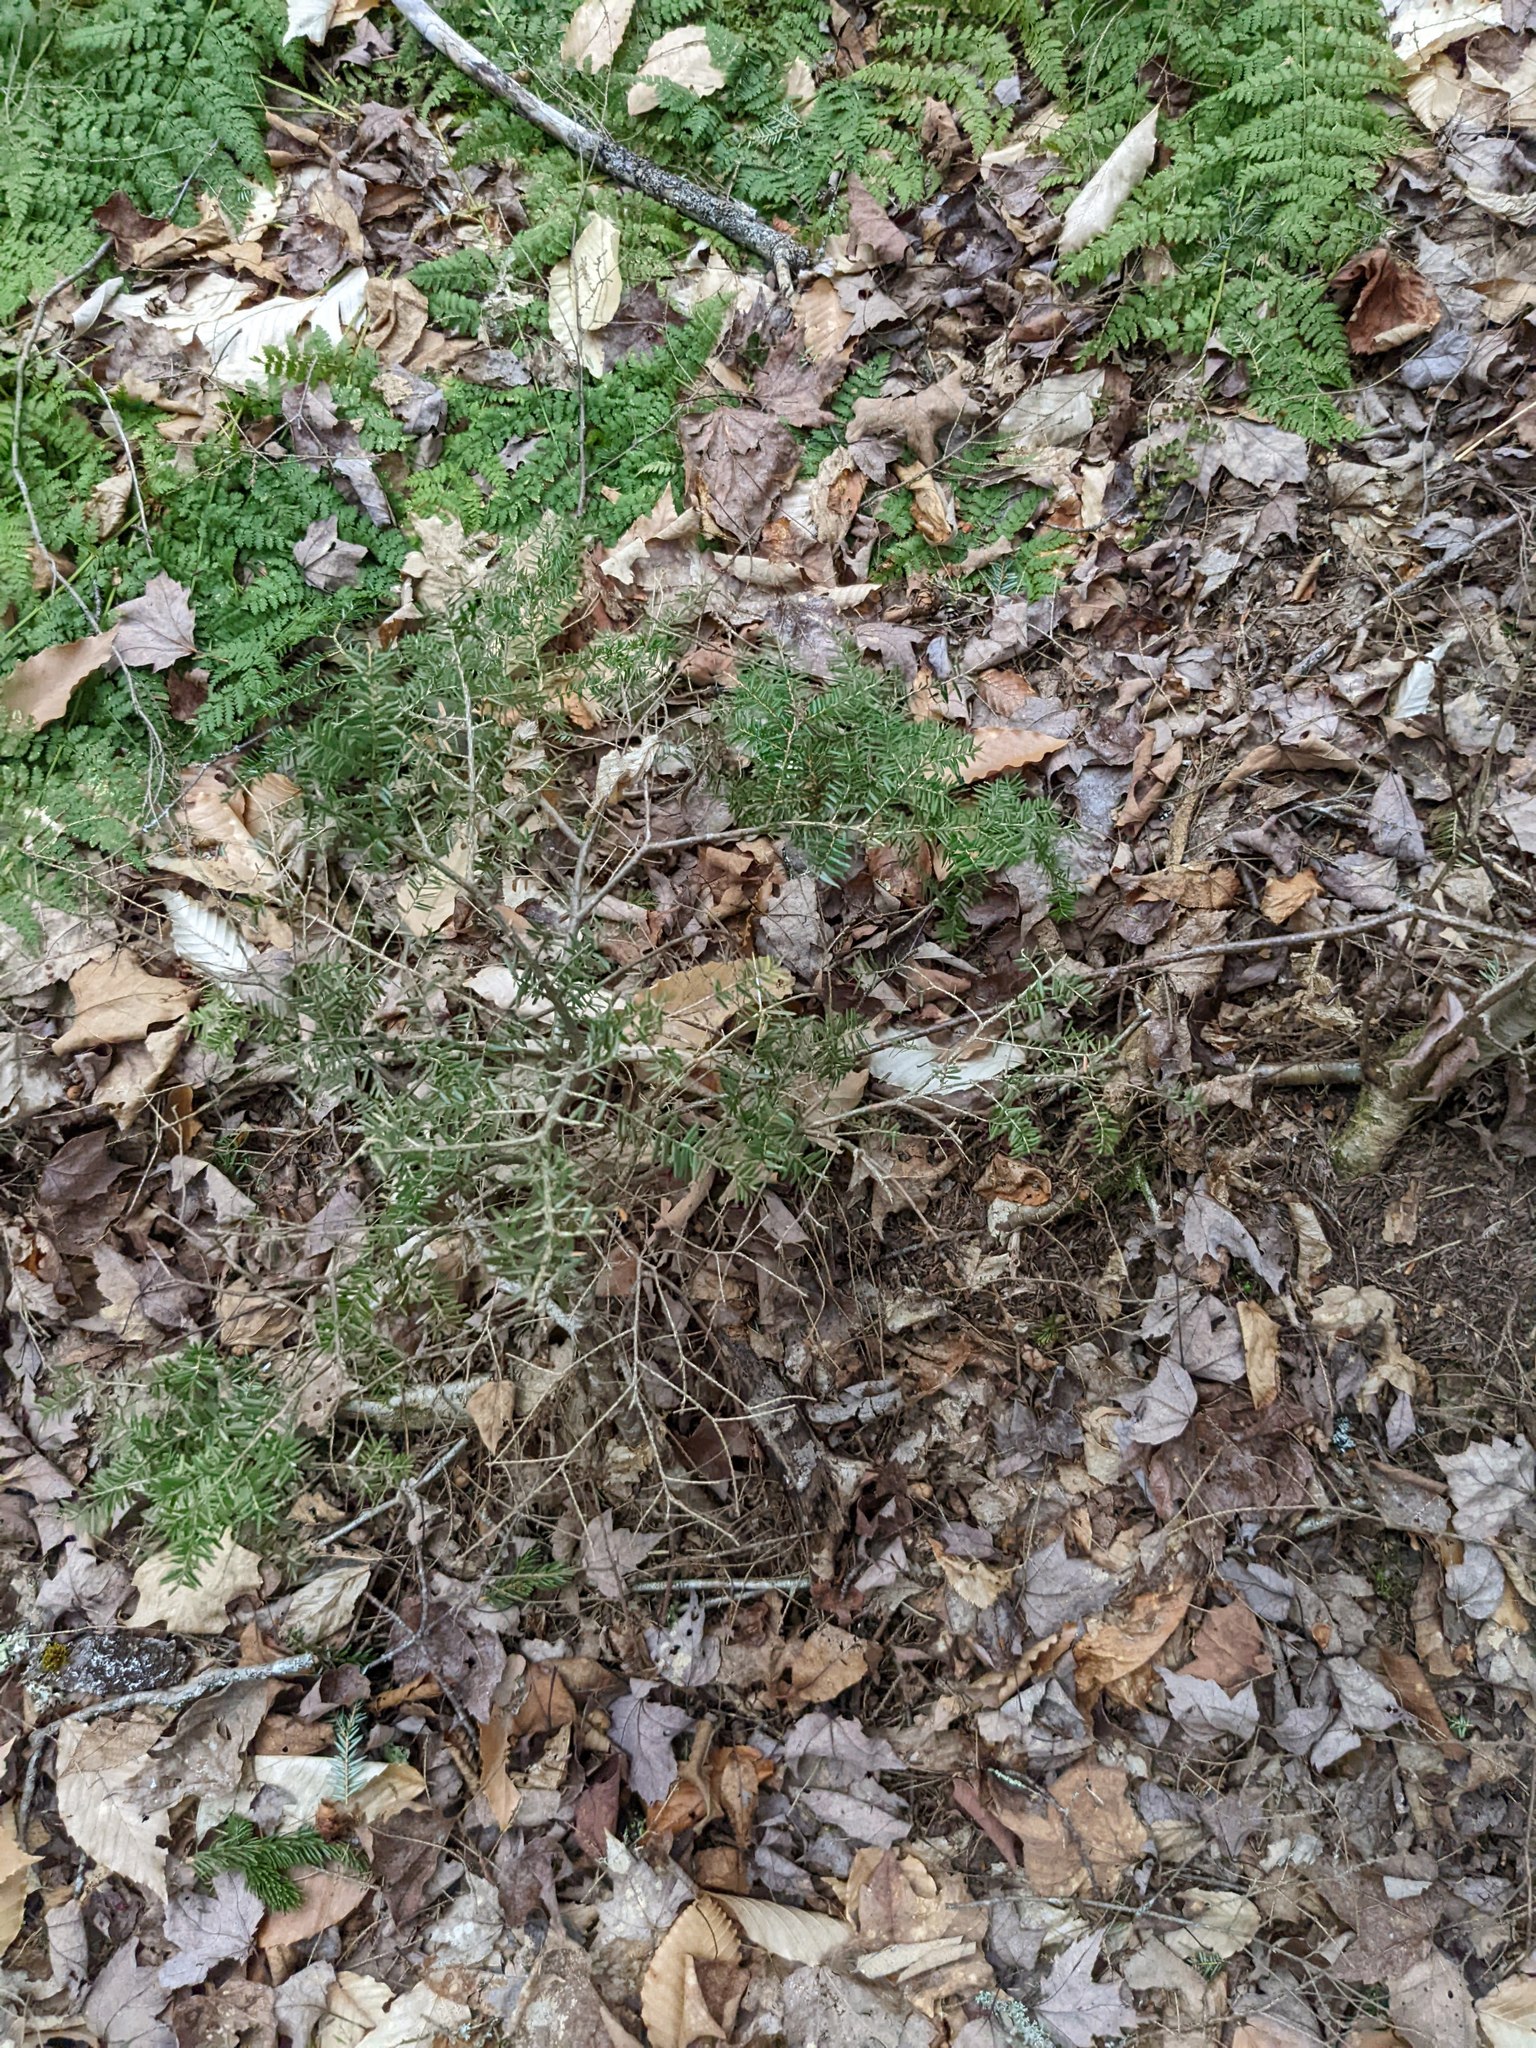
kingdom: Plantae
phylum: Tracheophyta
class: Pinopsida
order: Pinales
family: Pinaceae
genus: Tsuga
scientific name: Tsuga canadensis
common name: Eastern hemlock
